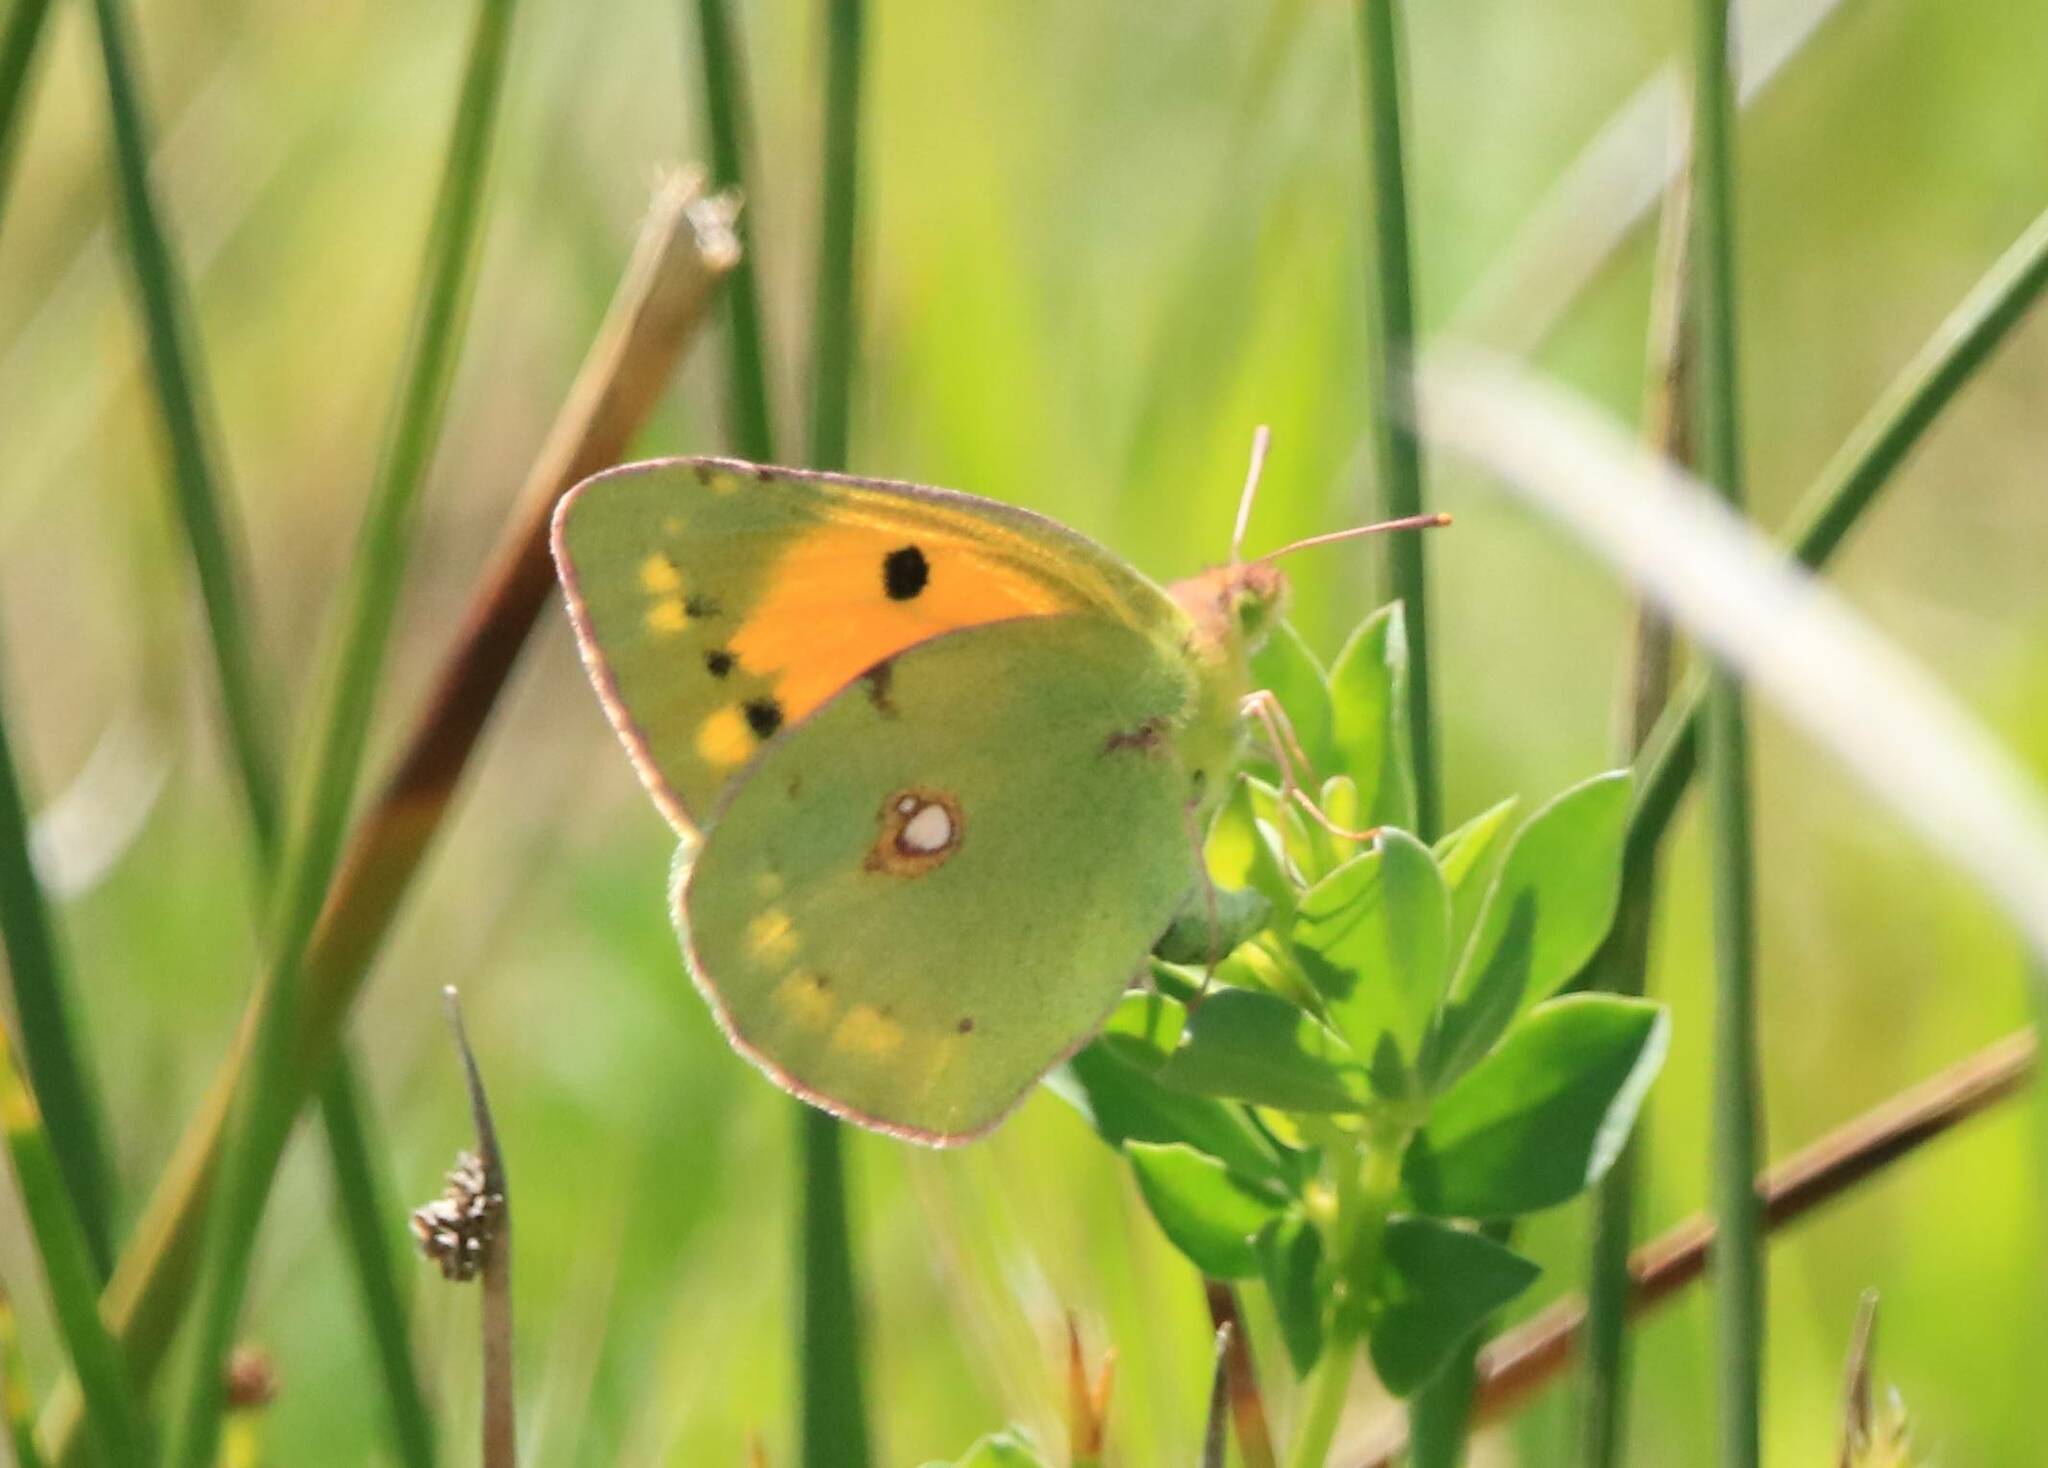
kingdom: Animalia
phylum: Arthropoda
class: Insecta
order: Lepidoptera
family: Pieridae
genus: Colias
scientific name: Colias croceus
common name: Clouded yellow
